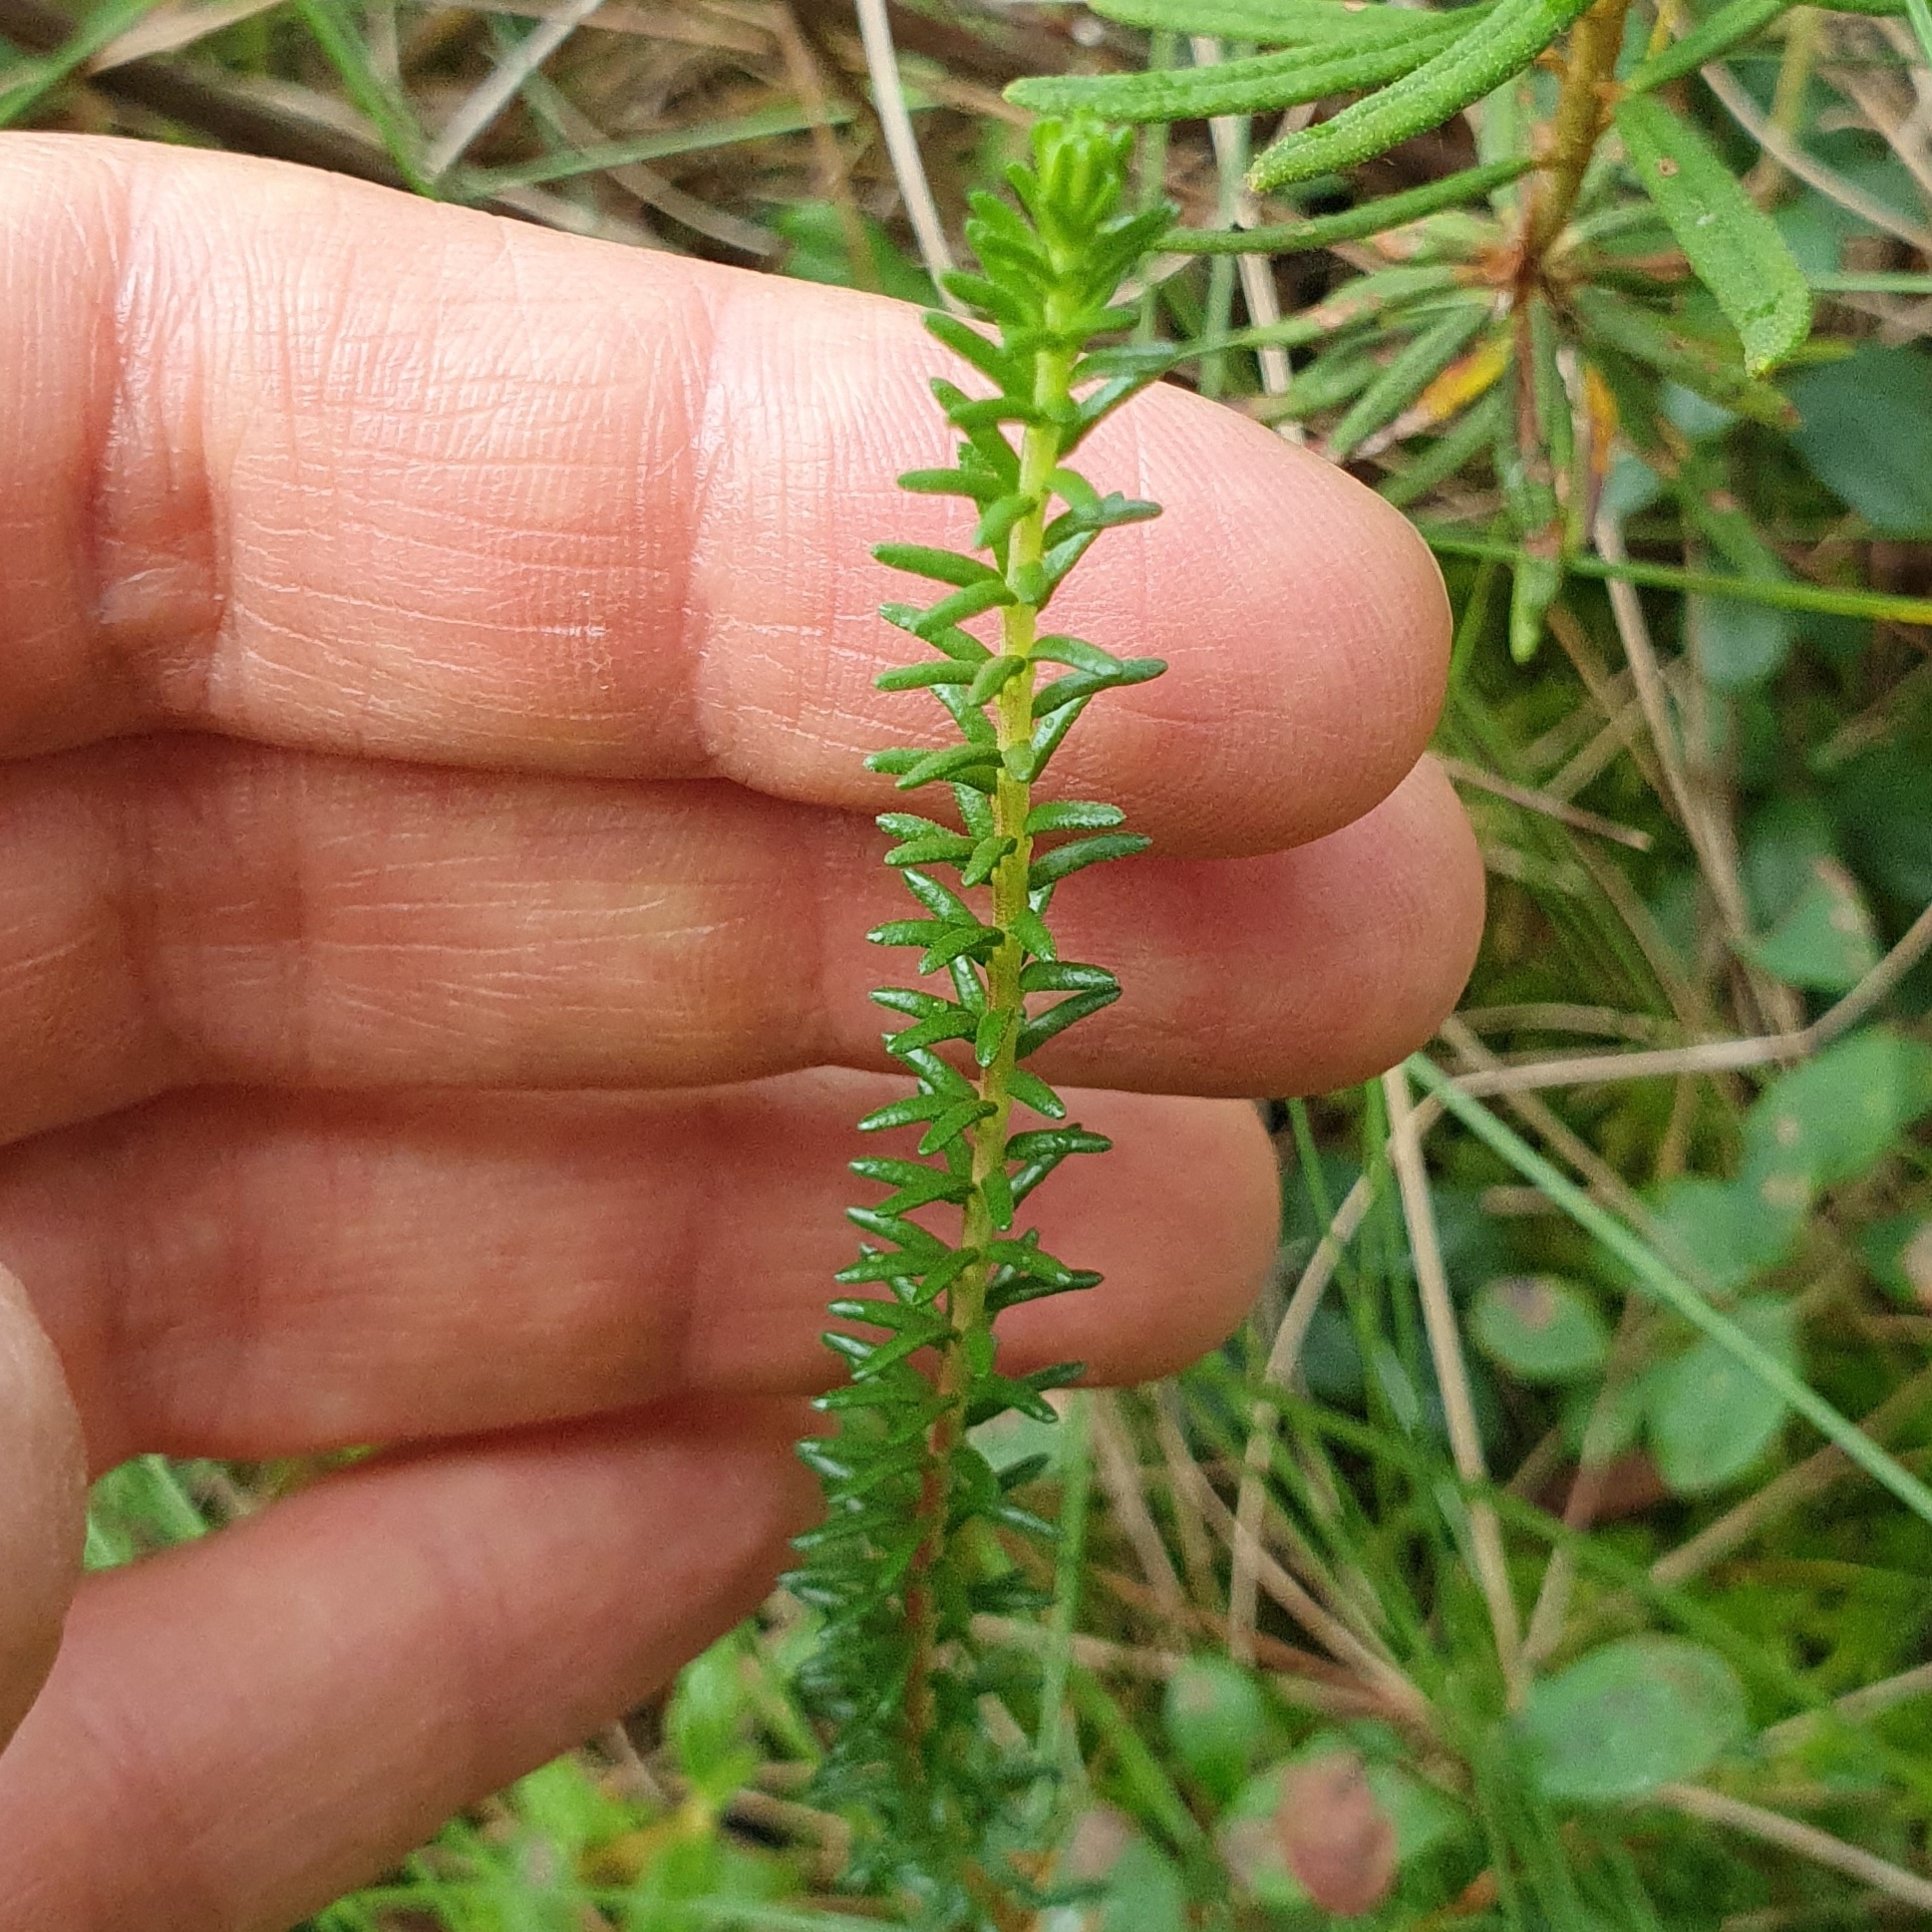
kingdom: Plantae
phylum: Tracheophyta
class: Magnoliopsida
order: Ericales
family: Ericaceae
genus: Empetrum
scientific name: Empetrum nigrum
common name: Black crowberry
